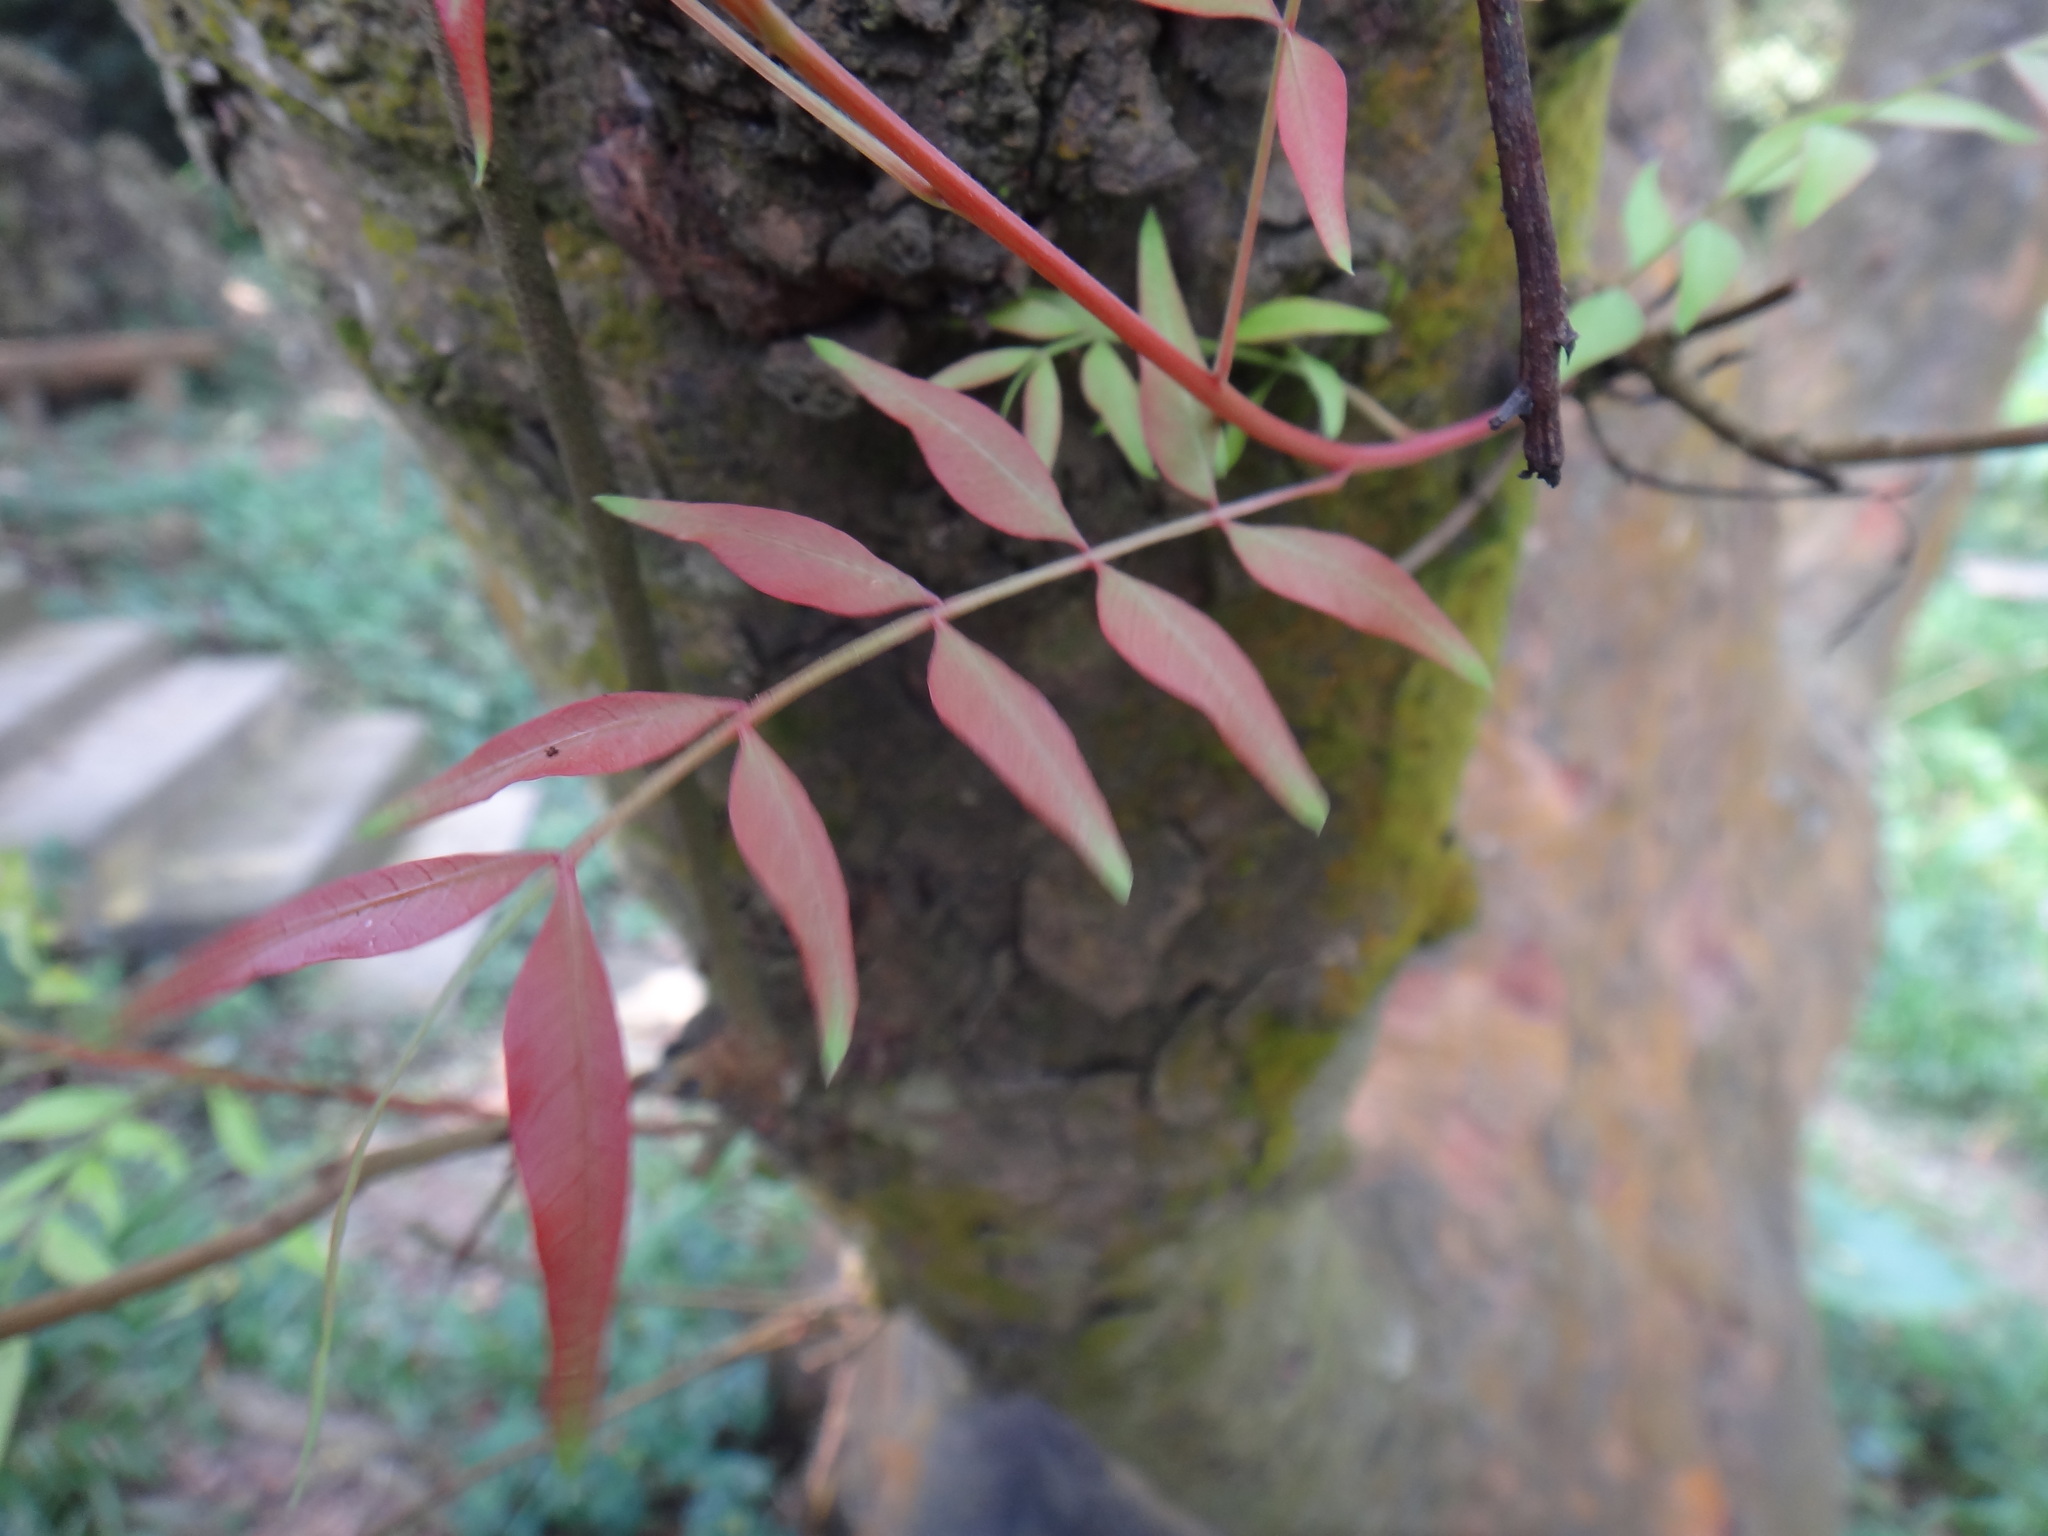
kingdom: Plantae
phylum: Tracheophyta
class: Magnoliopsida
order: Sapindales
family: Anacardiaceae
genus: Pistacia
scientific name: Pistacia chinensis
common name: Chinese pistache
